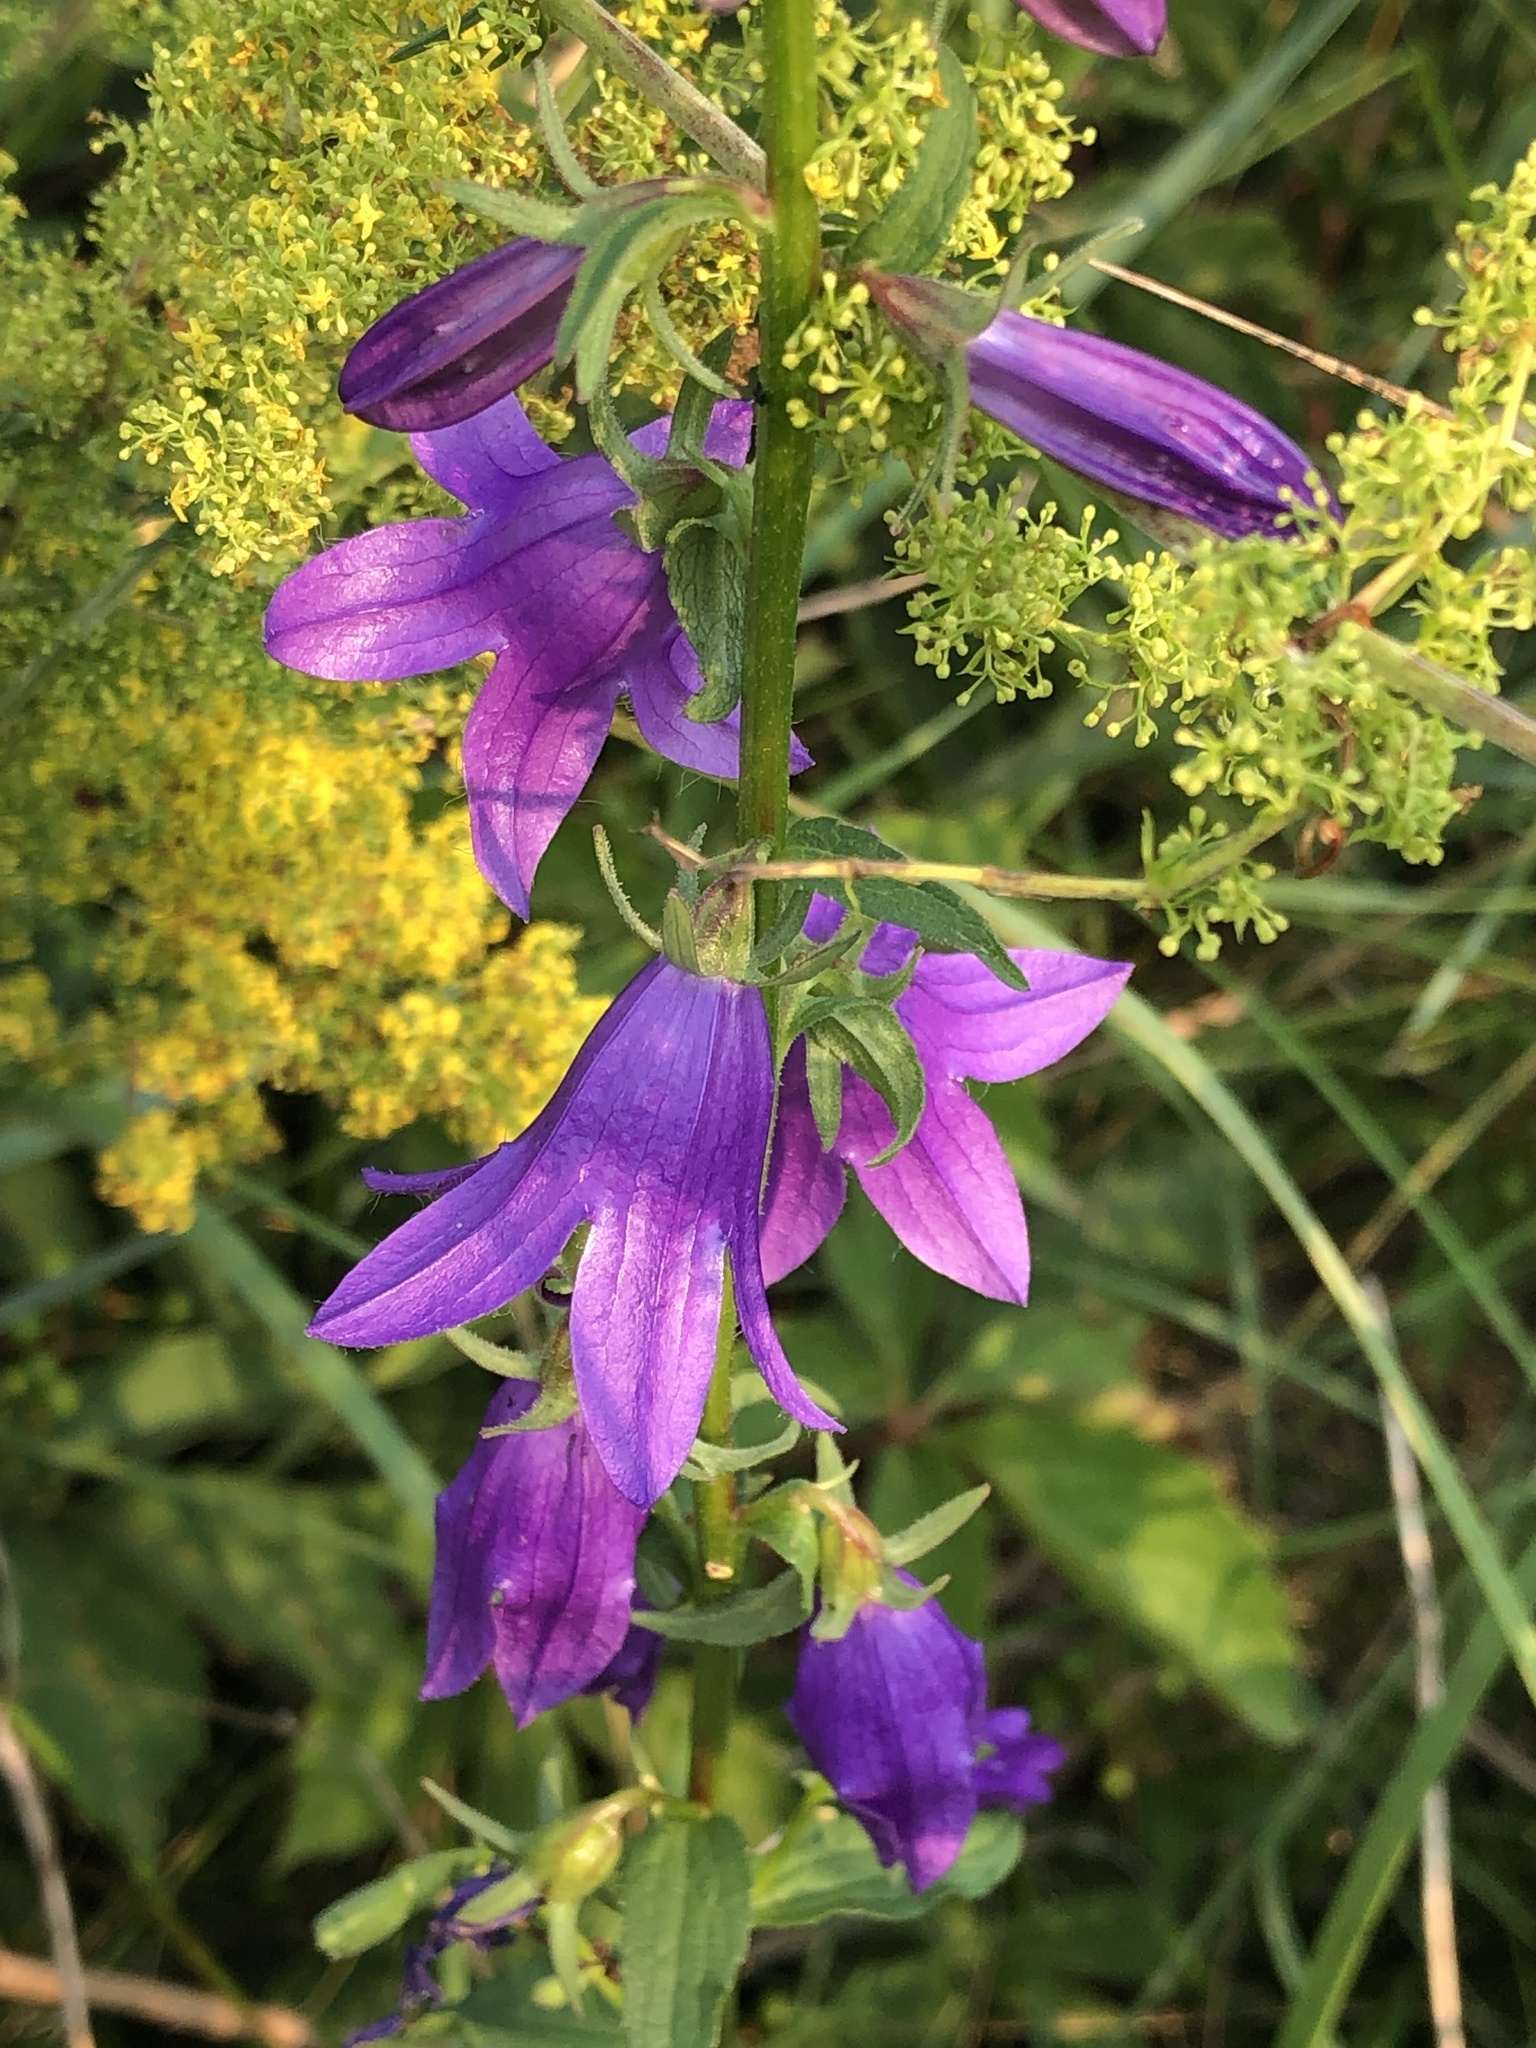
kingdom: Plantae
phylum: Tracheophyta
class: Magnoliopsida
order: Asterales
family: Campanulaceae
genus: Campanula
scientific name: Campanula rapunculoides
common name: Creeping bellflower
